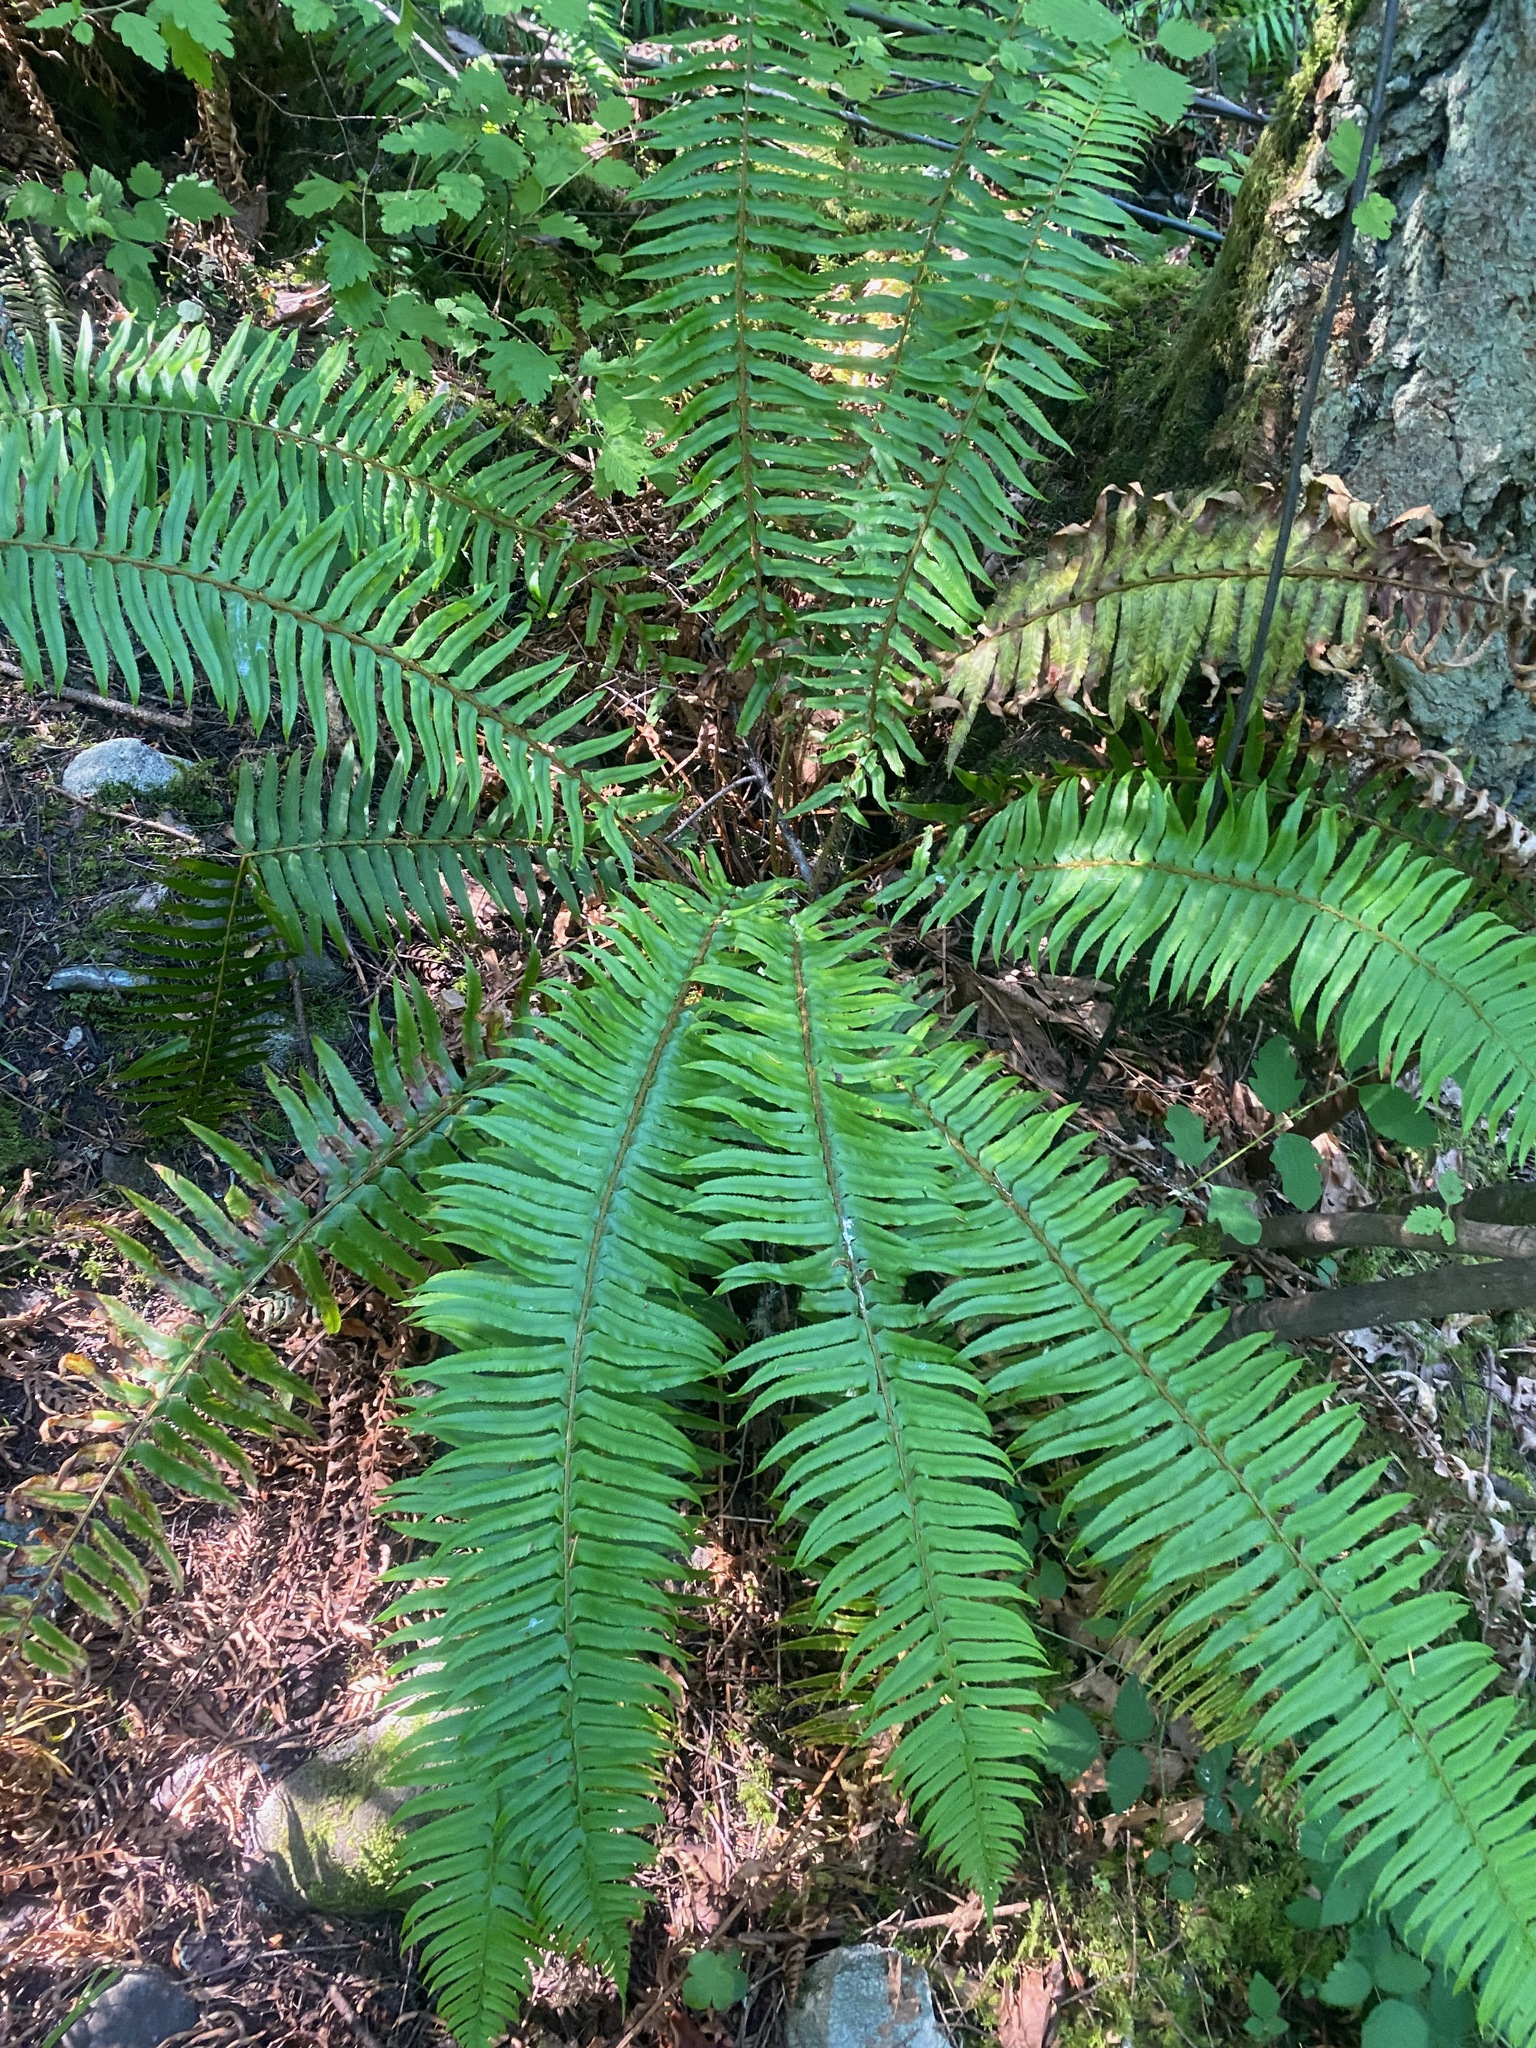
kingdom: Plantae
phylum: Tracheophyta
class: Polypodiopsida
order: Polypodiales
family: Dryopteridaceae
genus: Polystichum
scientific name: Polystichum munitum
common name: Western sword-fern
